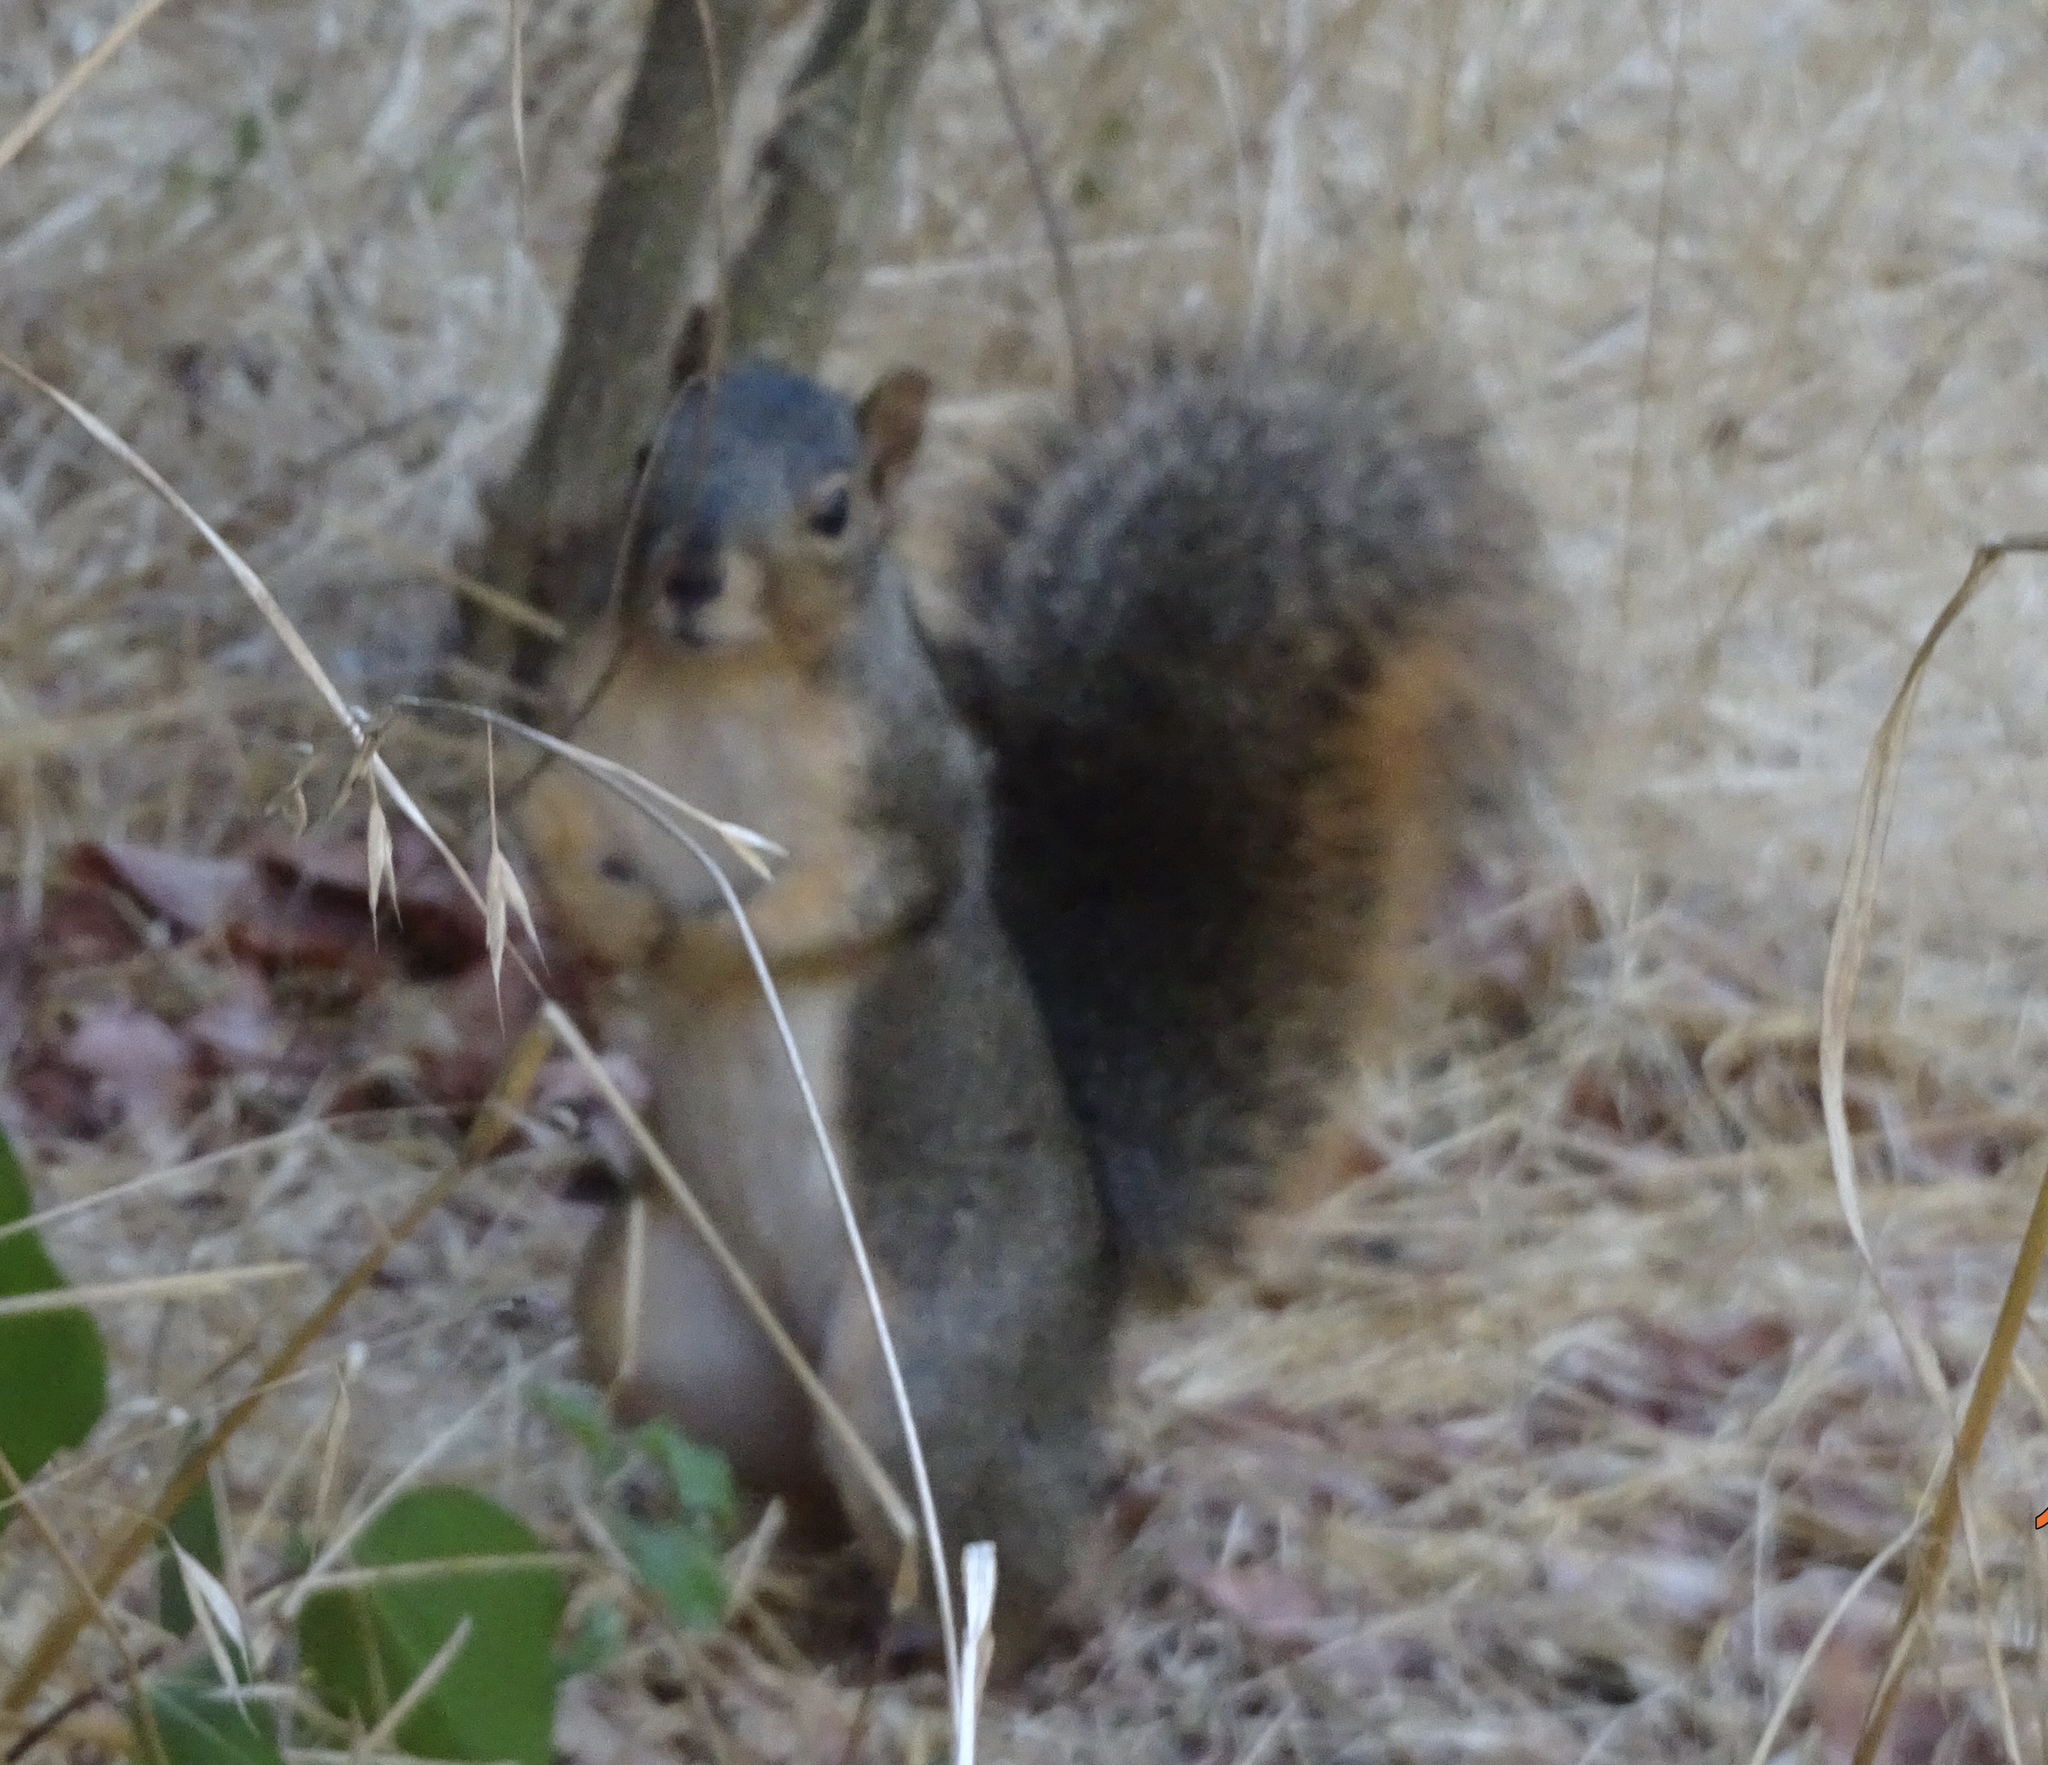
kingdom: Animalia
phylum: Chordata
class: Mammalia
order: Rodentia
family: Sciuridae
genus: Sciurus
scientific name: Sciurus niger
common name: Fox squirrel
